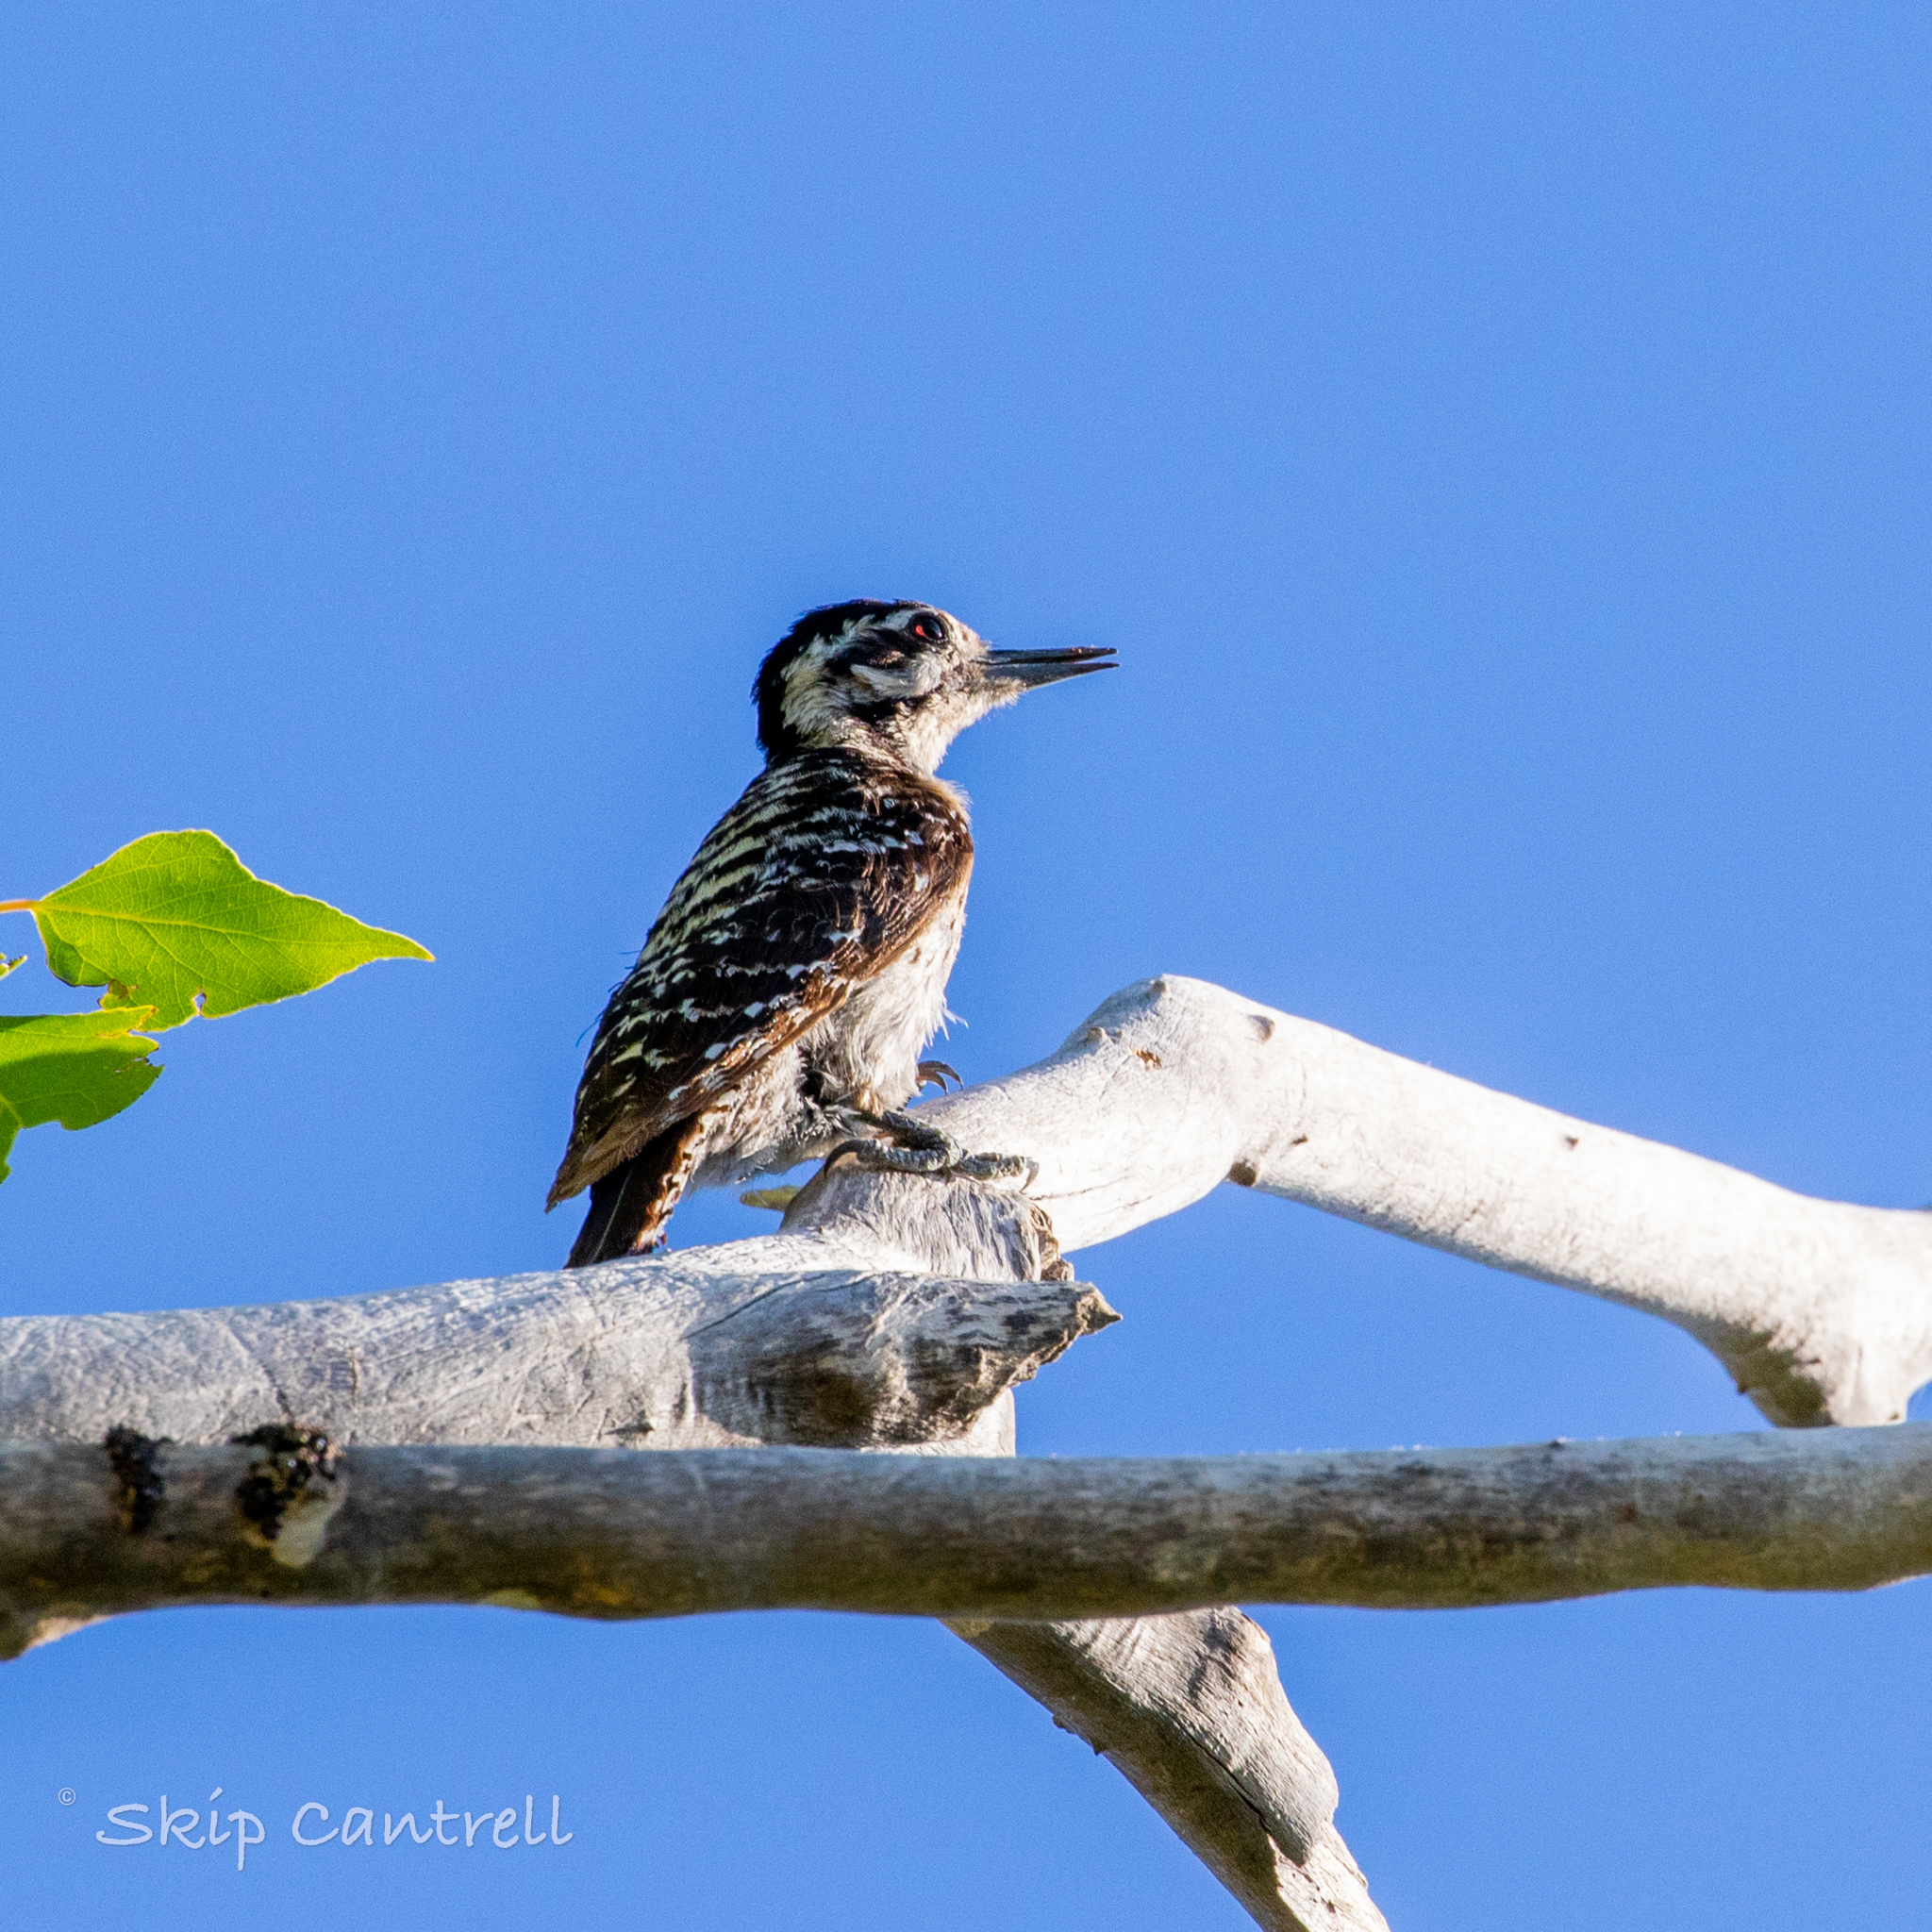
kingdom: Animalia
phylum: Chordata
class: Aves
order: Piciformes
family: Picidae
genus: Dryobates
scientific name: Dryobates scalaris
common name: Ladder-backed woodpecker
